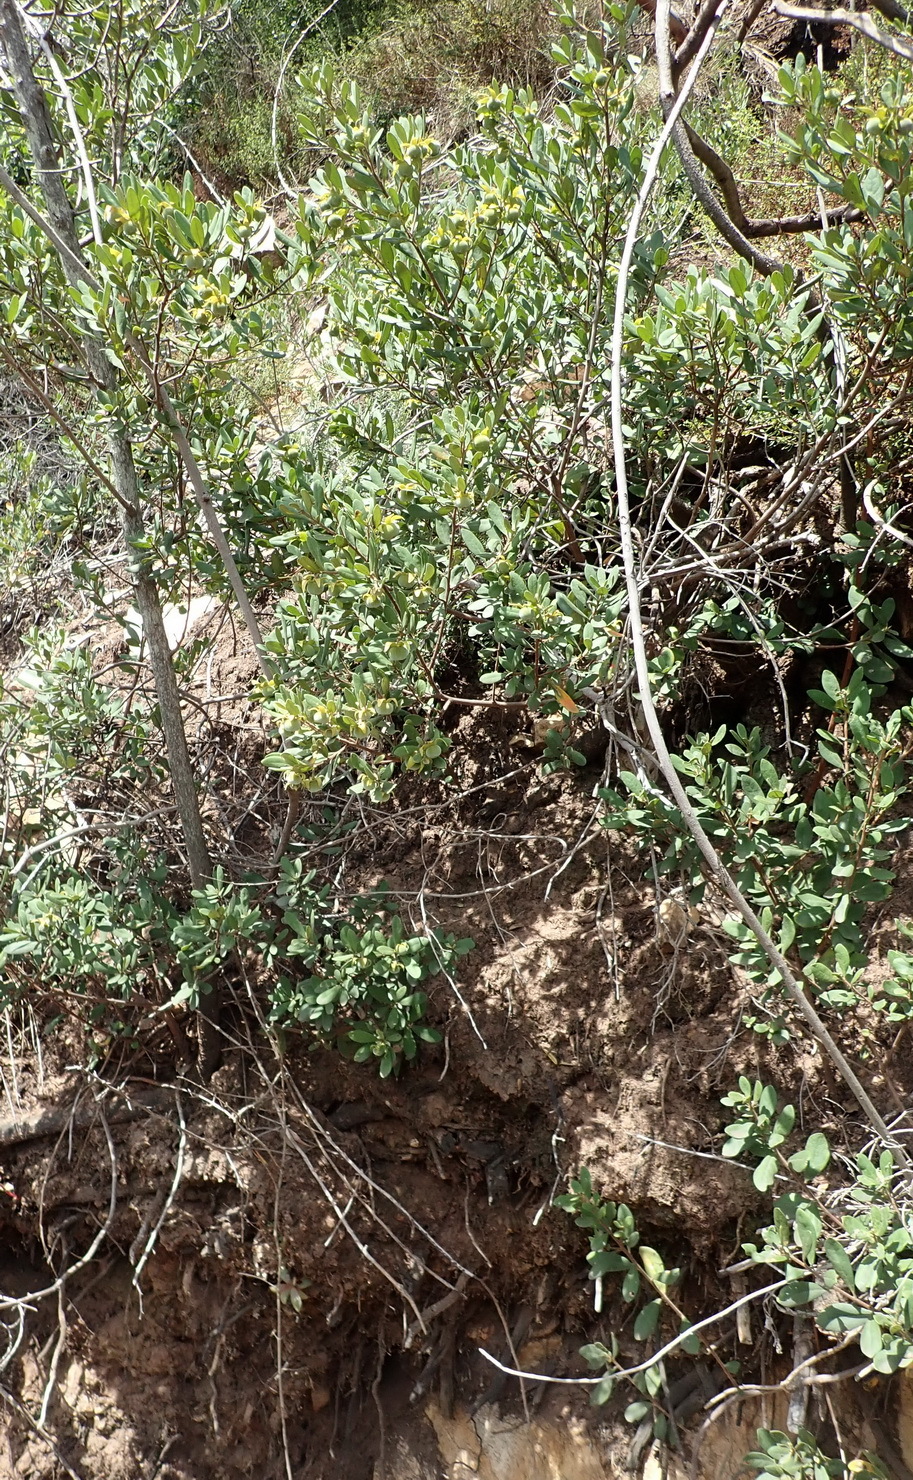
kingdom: Plantae
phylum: Tracheophyta
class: Magnoliopsida
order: Ericales
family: Ebenaceae
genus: Diospyros
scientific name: Diospyros dichrophylla
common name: Common star-apple
